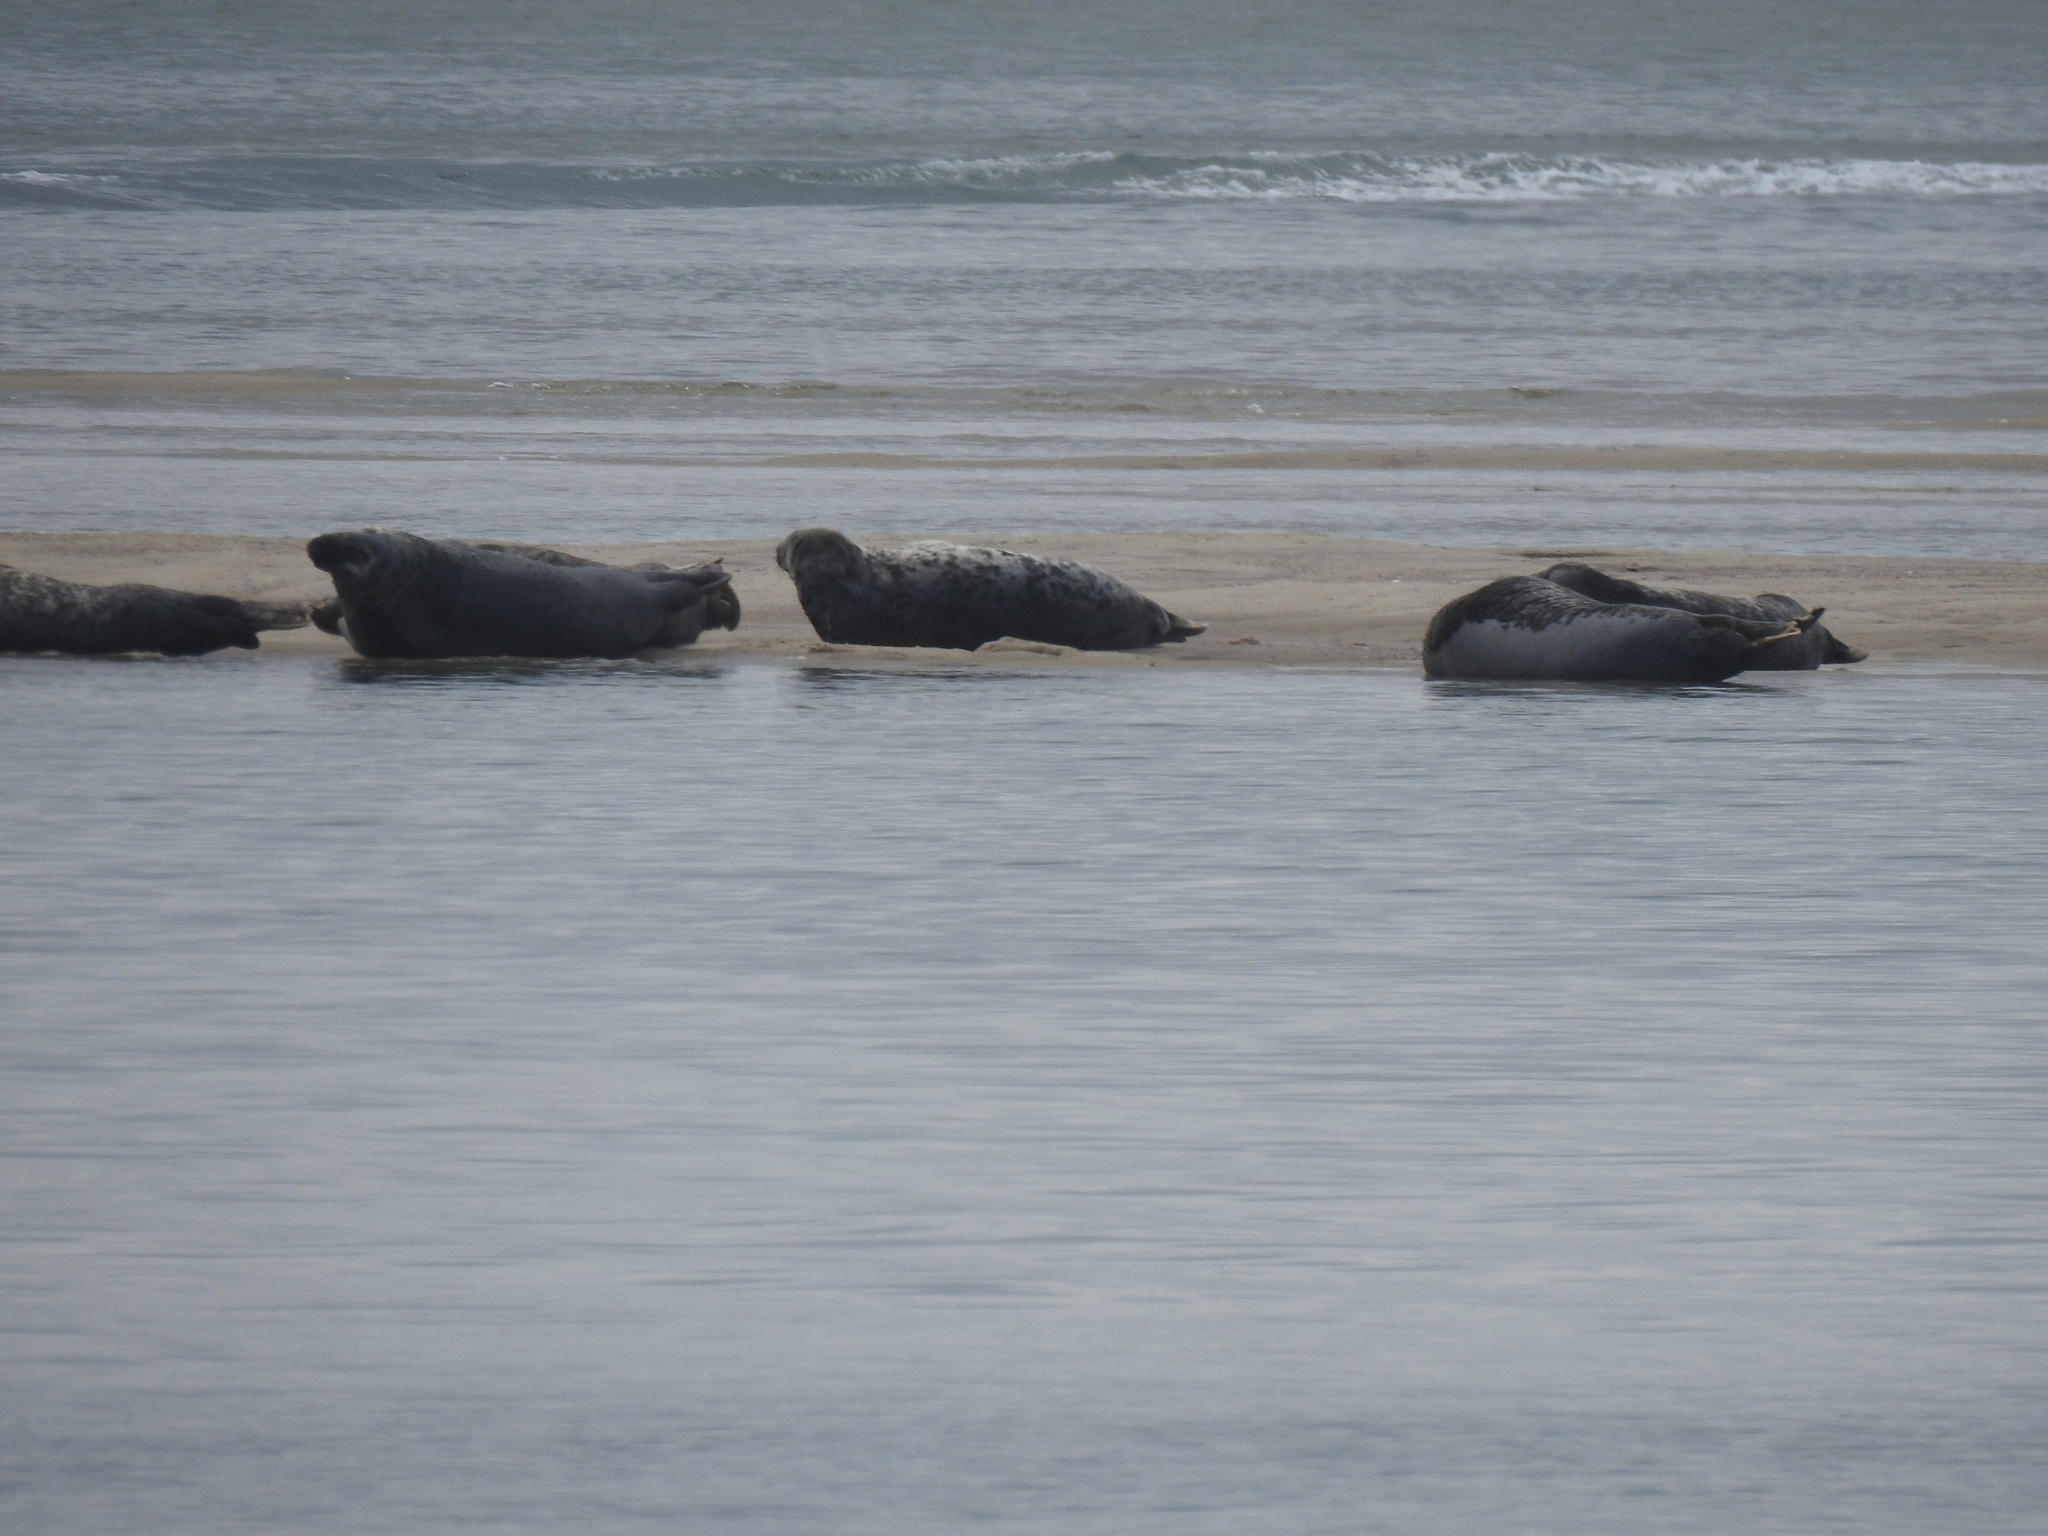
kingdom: Animalia
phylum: Chordata
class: Mammalia
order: Carnivora
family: Phocidae
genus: Halichoerus
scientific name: Halichoerus grypus
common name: Grey seal
